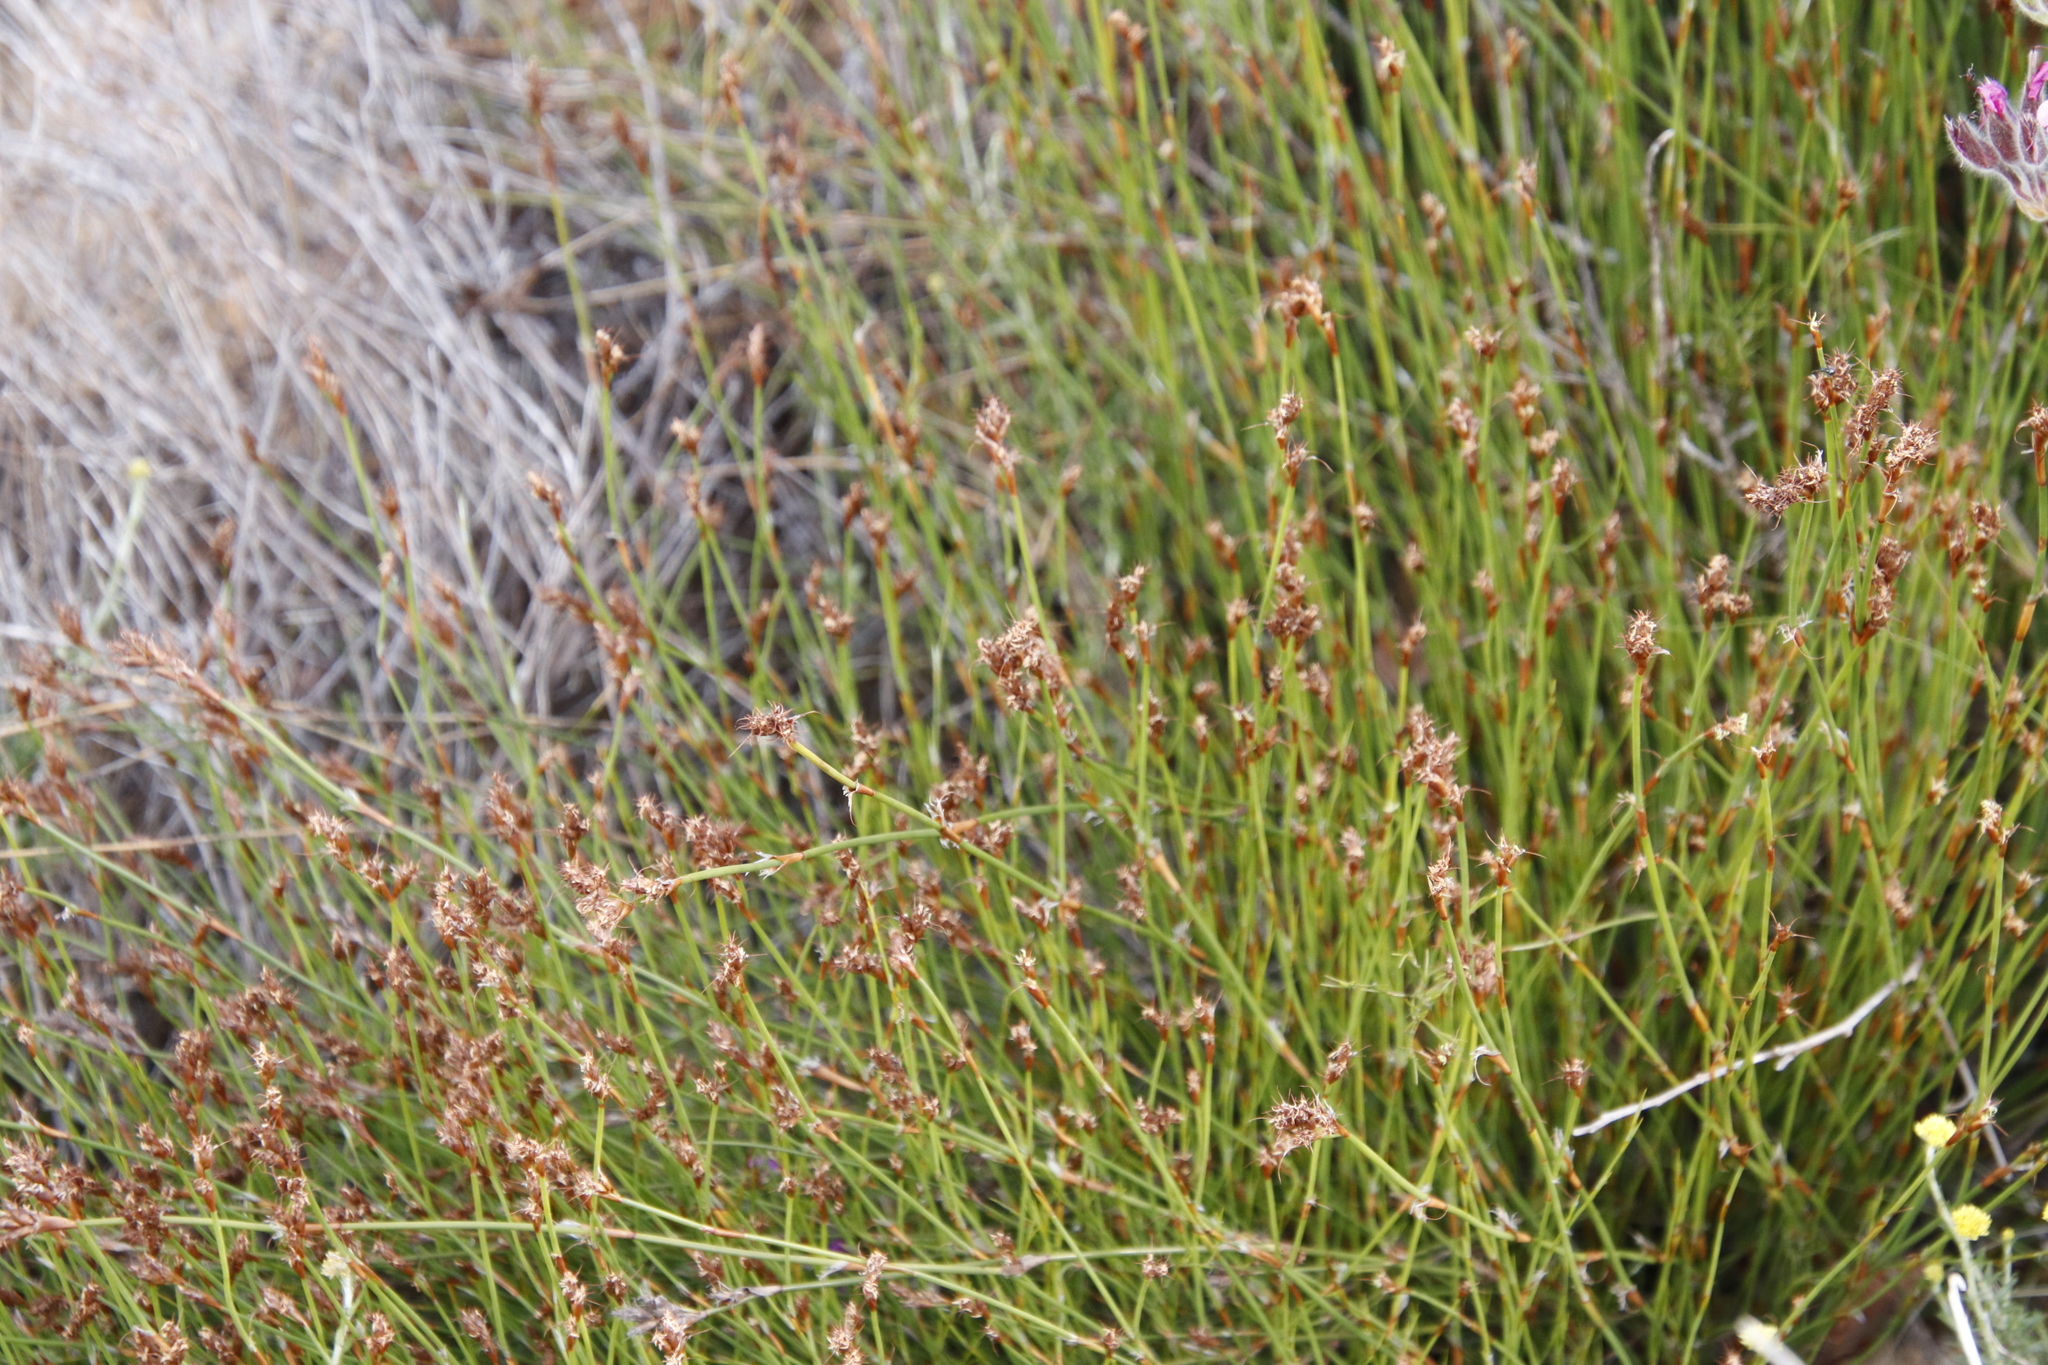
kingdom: Plantae
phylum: Tracheophyta
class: Liliopsida
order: Poales
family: Restionaceae
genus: Restio
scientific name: Restio capensis
